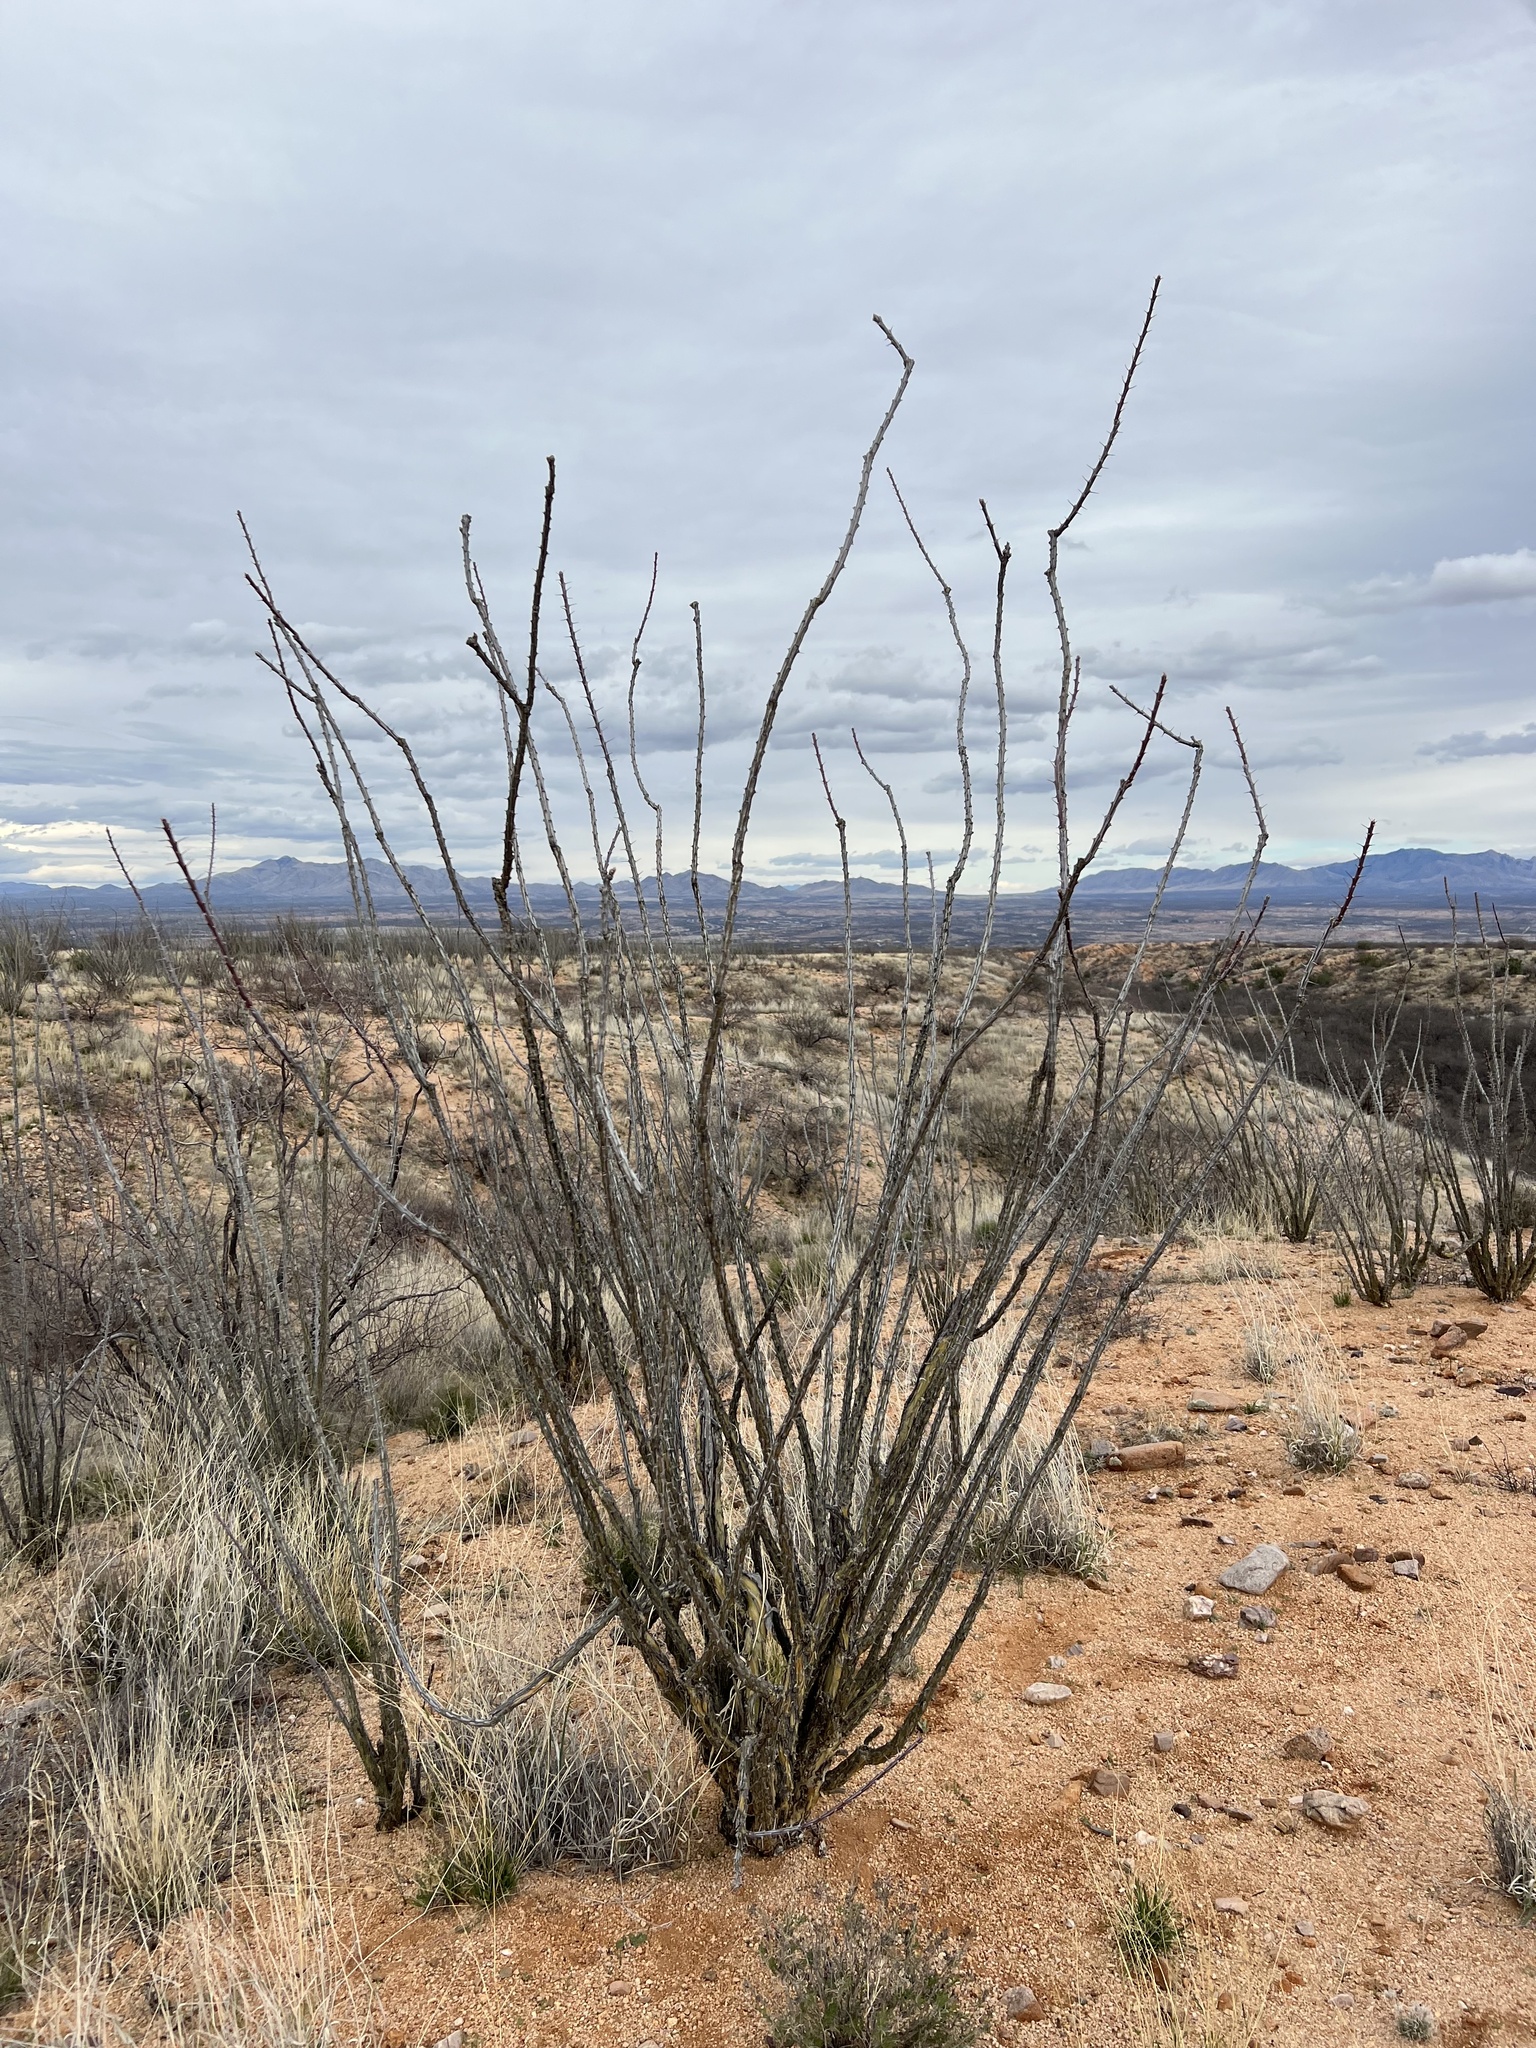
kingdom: Plantae
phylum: Tracheophyta
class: Magnoliopsida
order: Ericales
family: Fouquieriaceae
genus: Fouquieria
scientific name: Fouquieria splendens
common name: Vine-cactus
